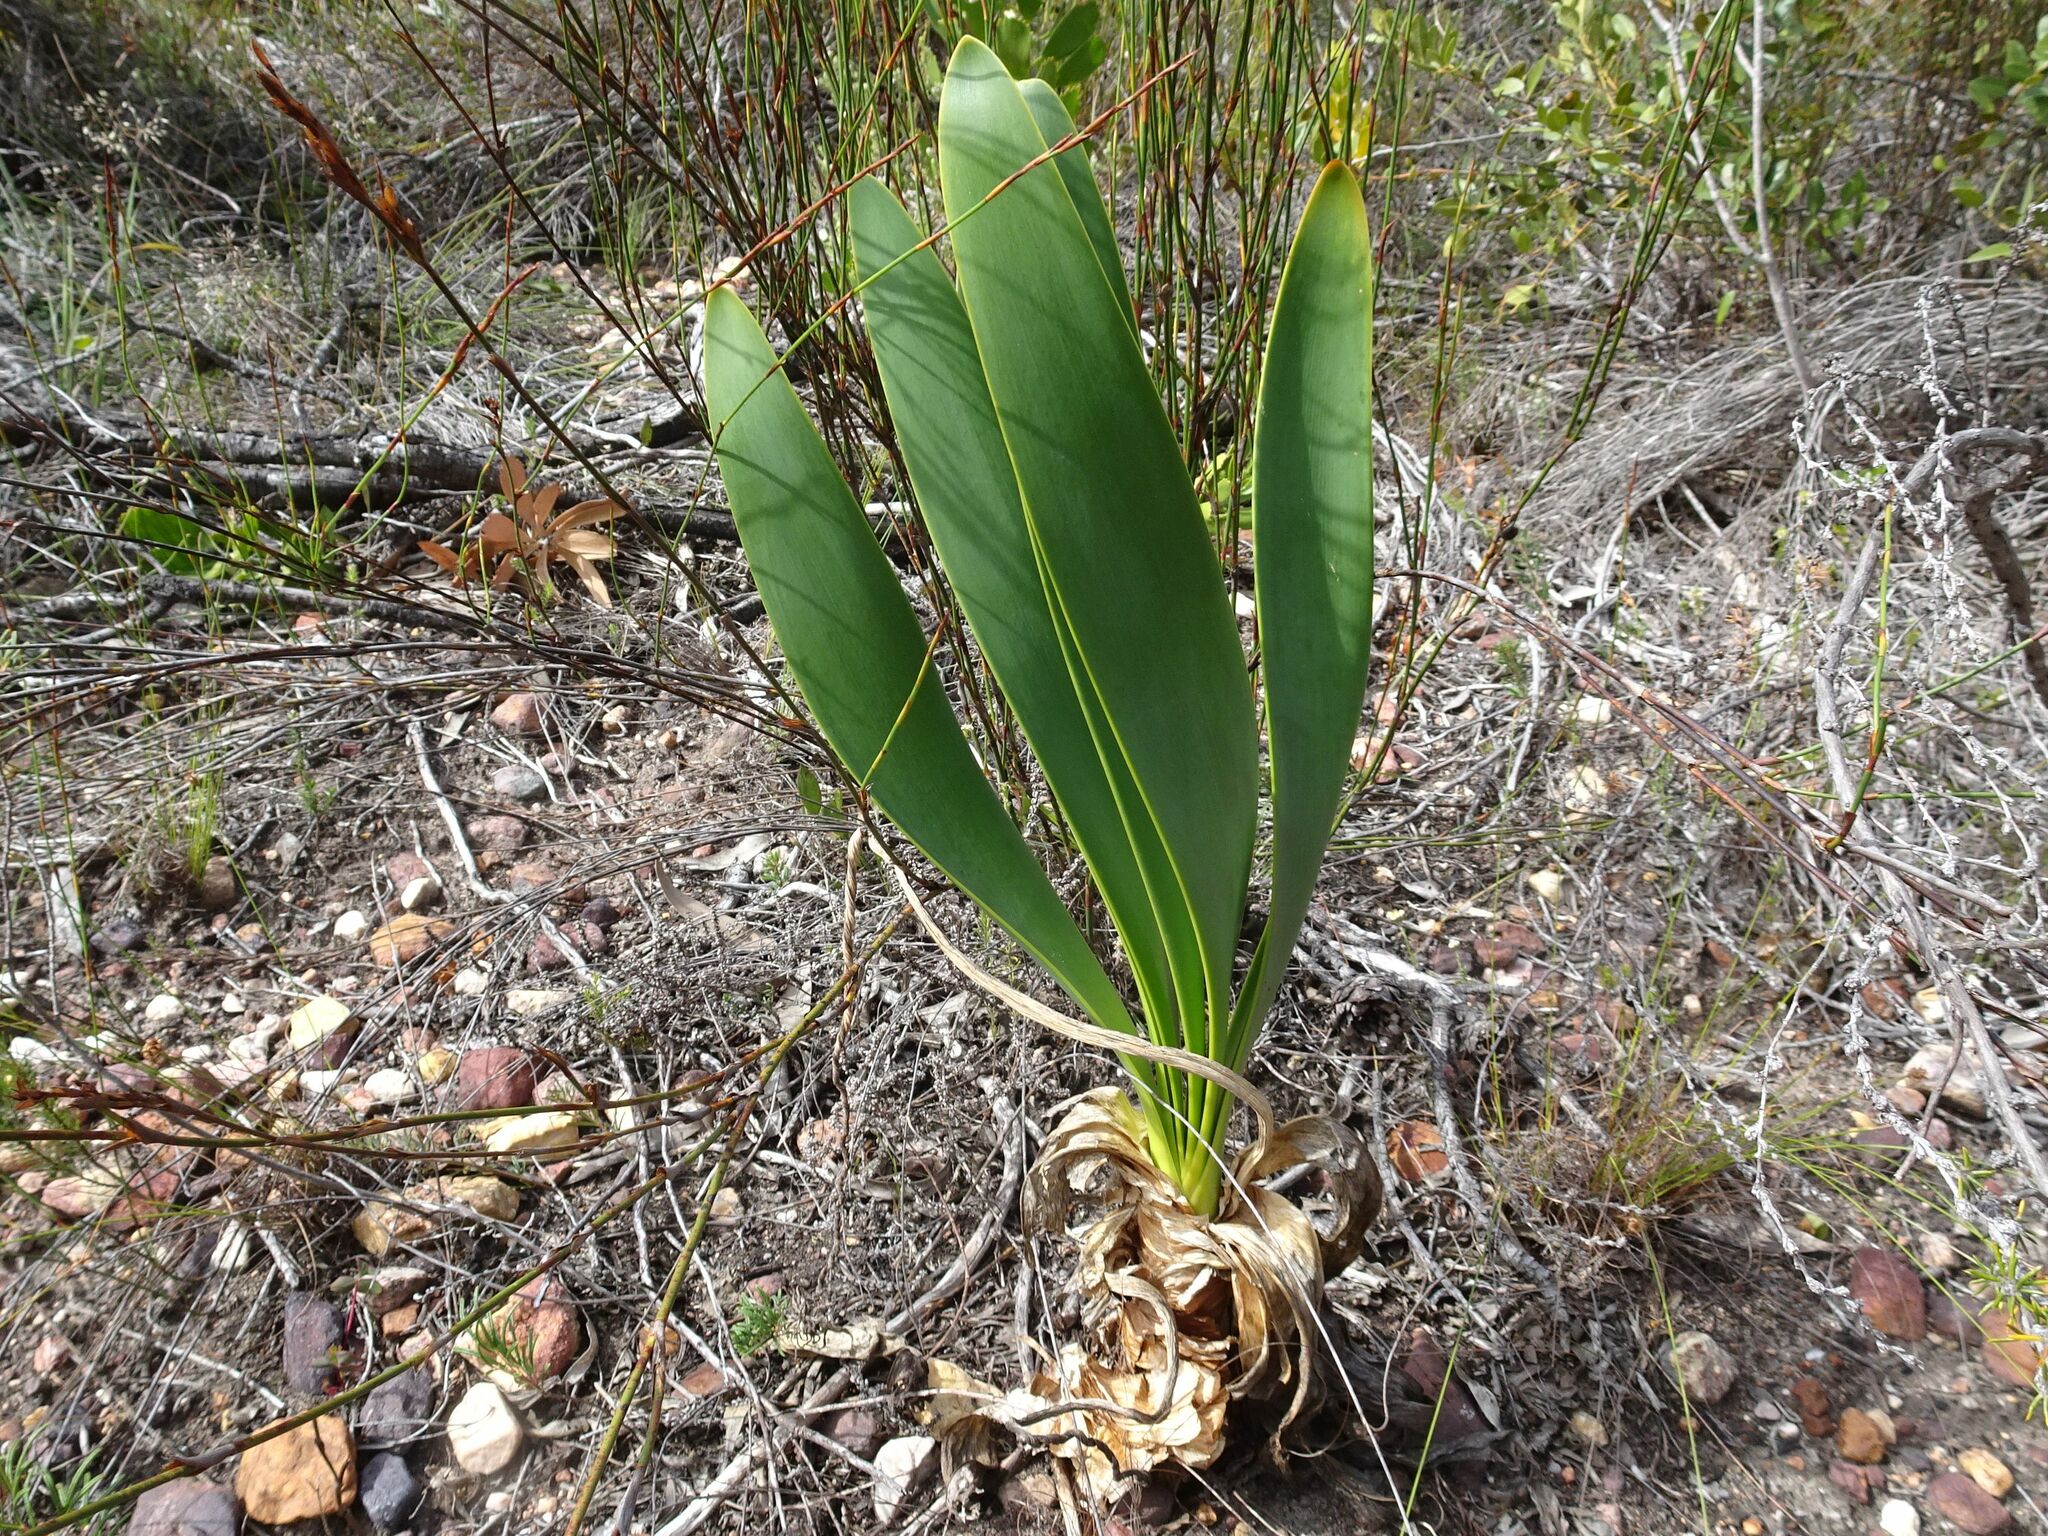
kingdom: Plantae
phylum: Tracheophyta
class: Liliopsida
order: Asparagales
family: Amaryllidaceae
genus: Cyrtanthus
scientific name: Cyrtanthus carneus
